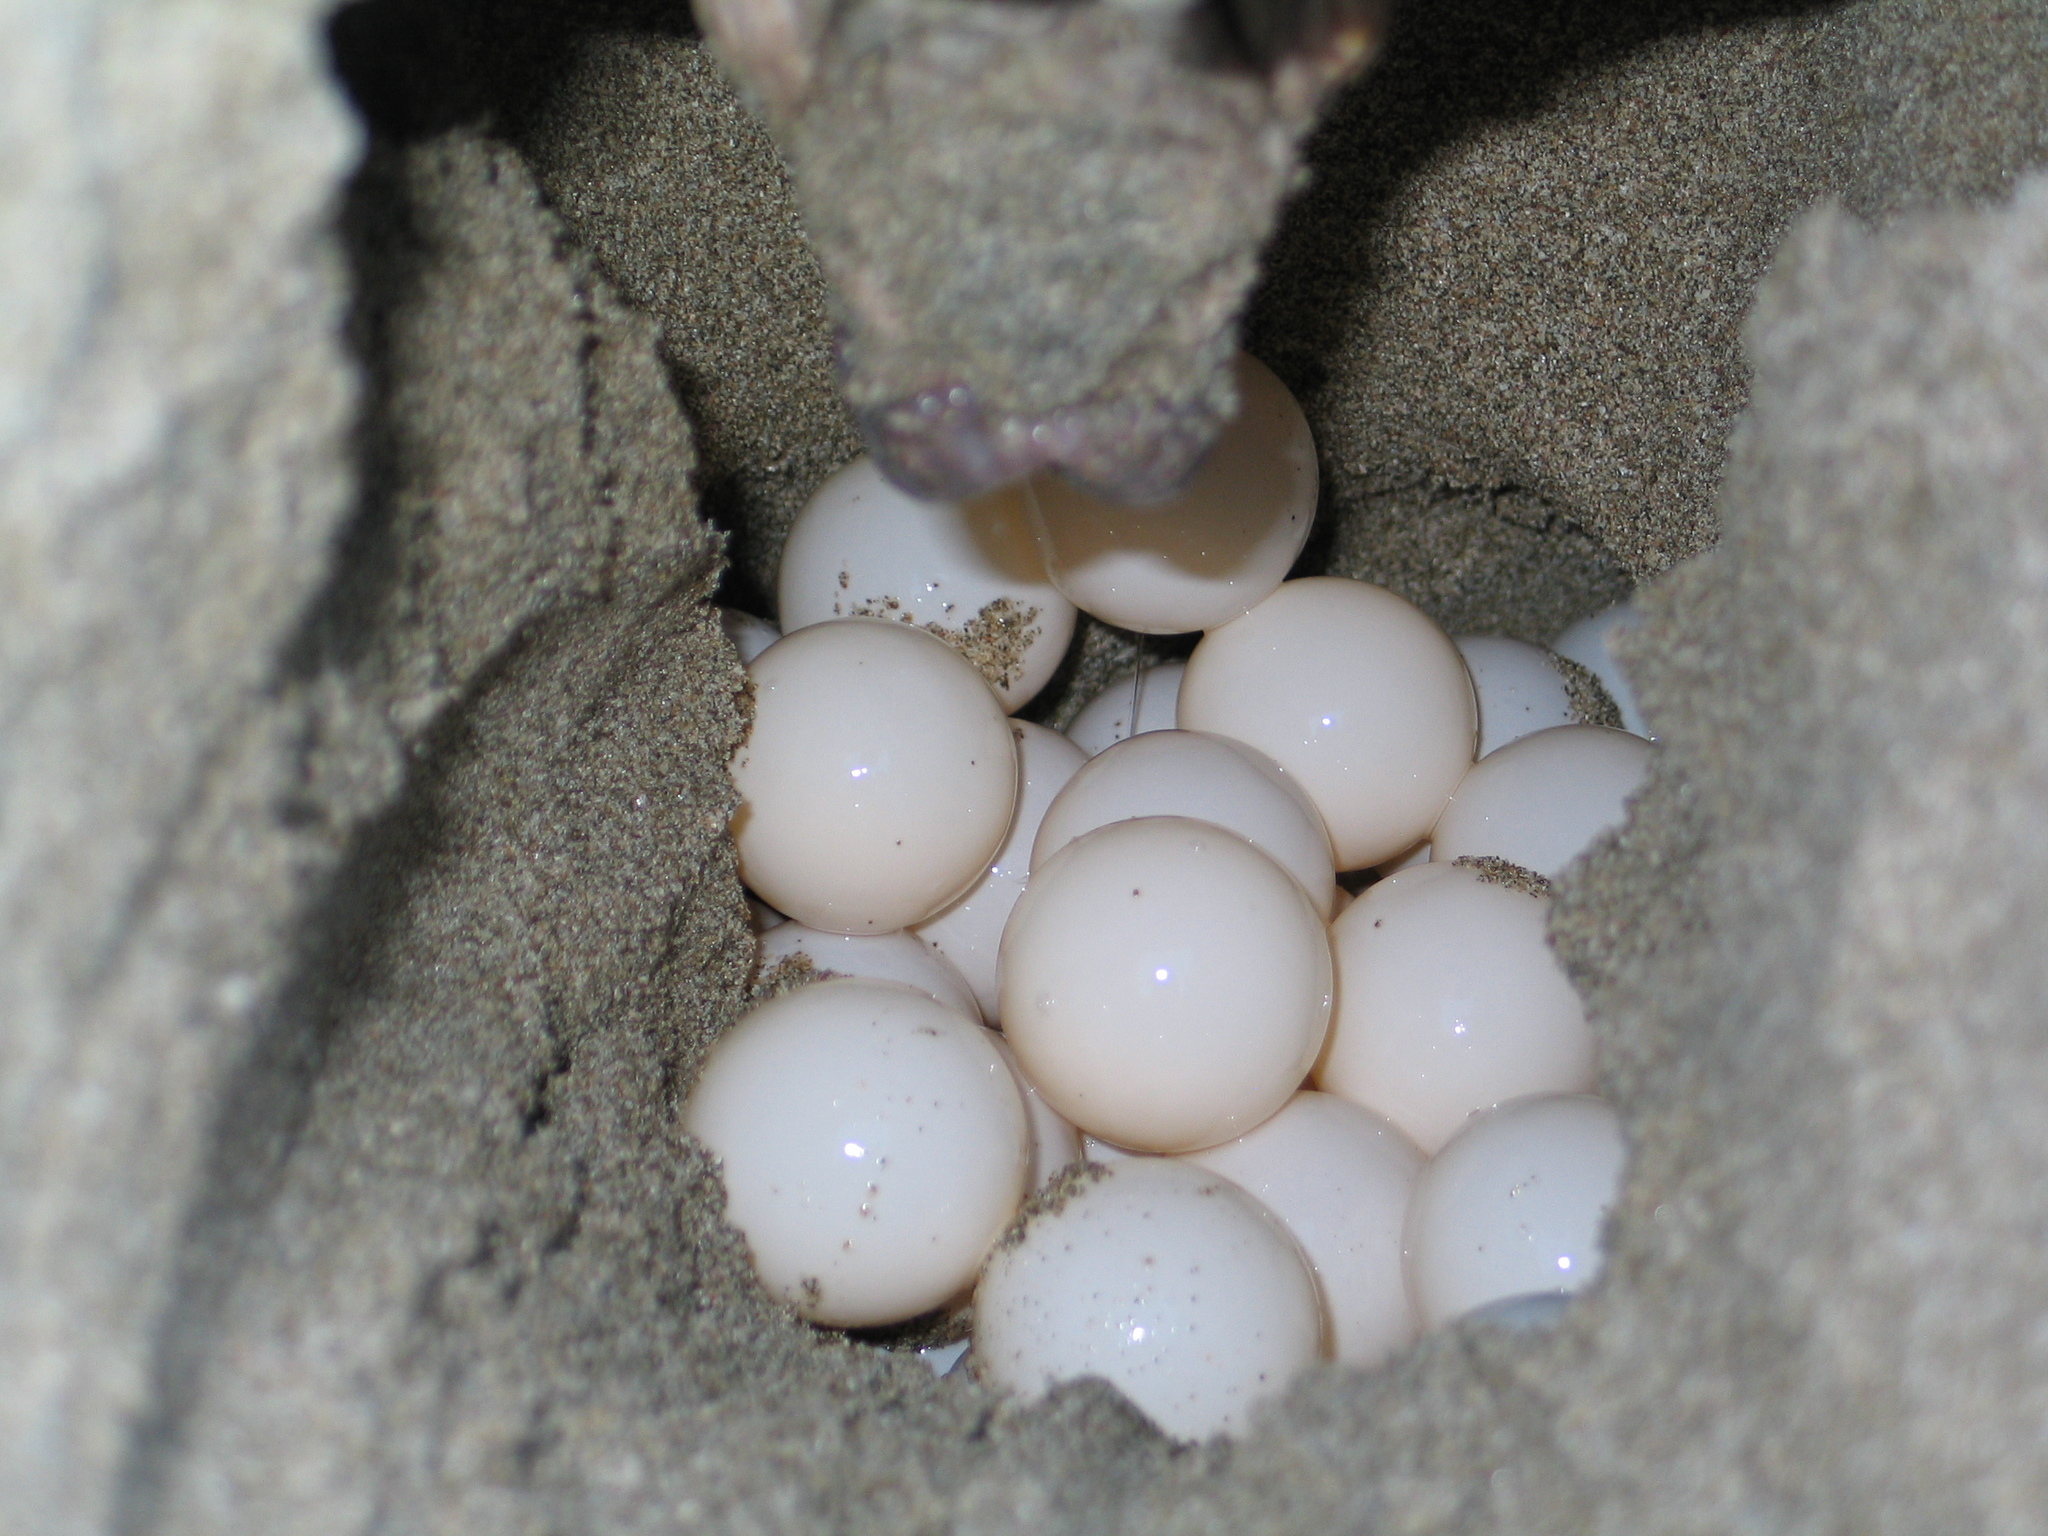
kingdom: Animalia
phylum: Chordata
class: Testudines
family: Cheloniidae
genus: Lepidochelys
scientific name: Lepidochelys olivacea
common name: Olive ridley
